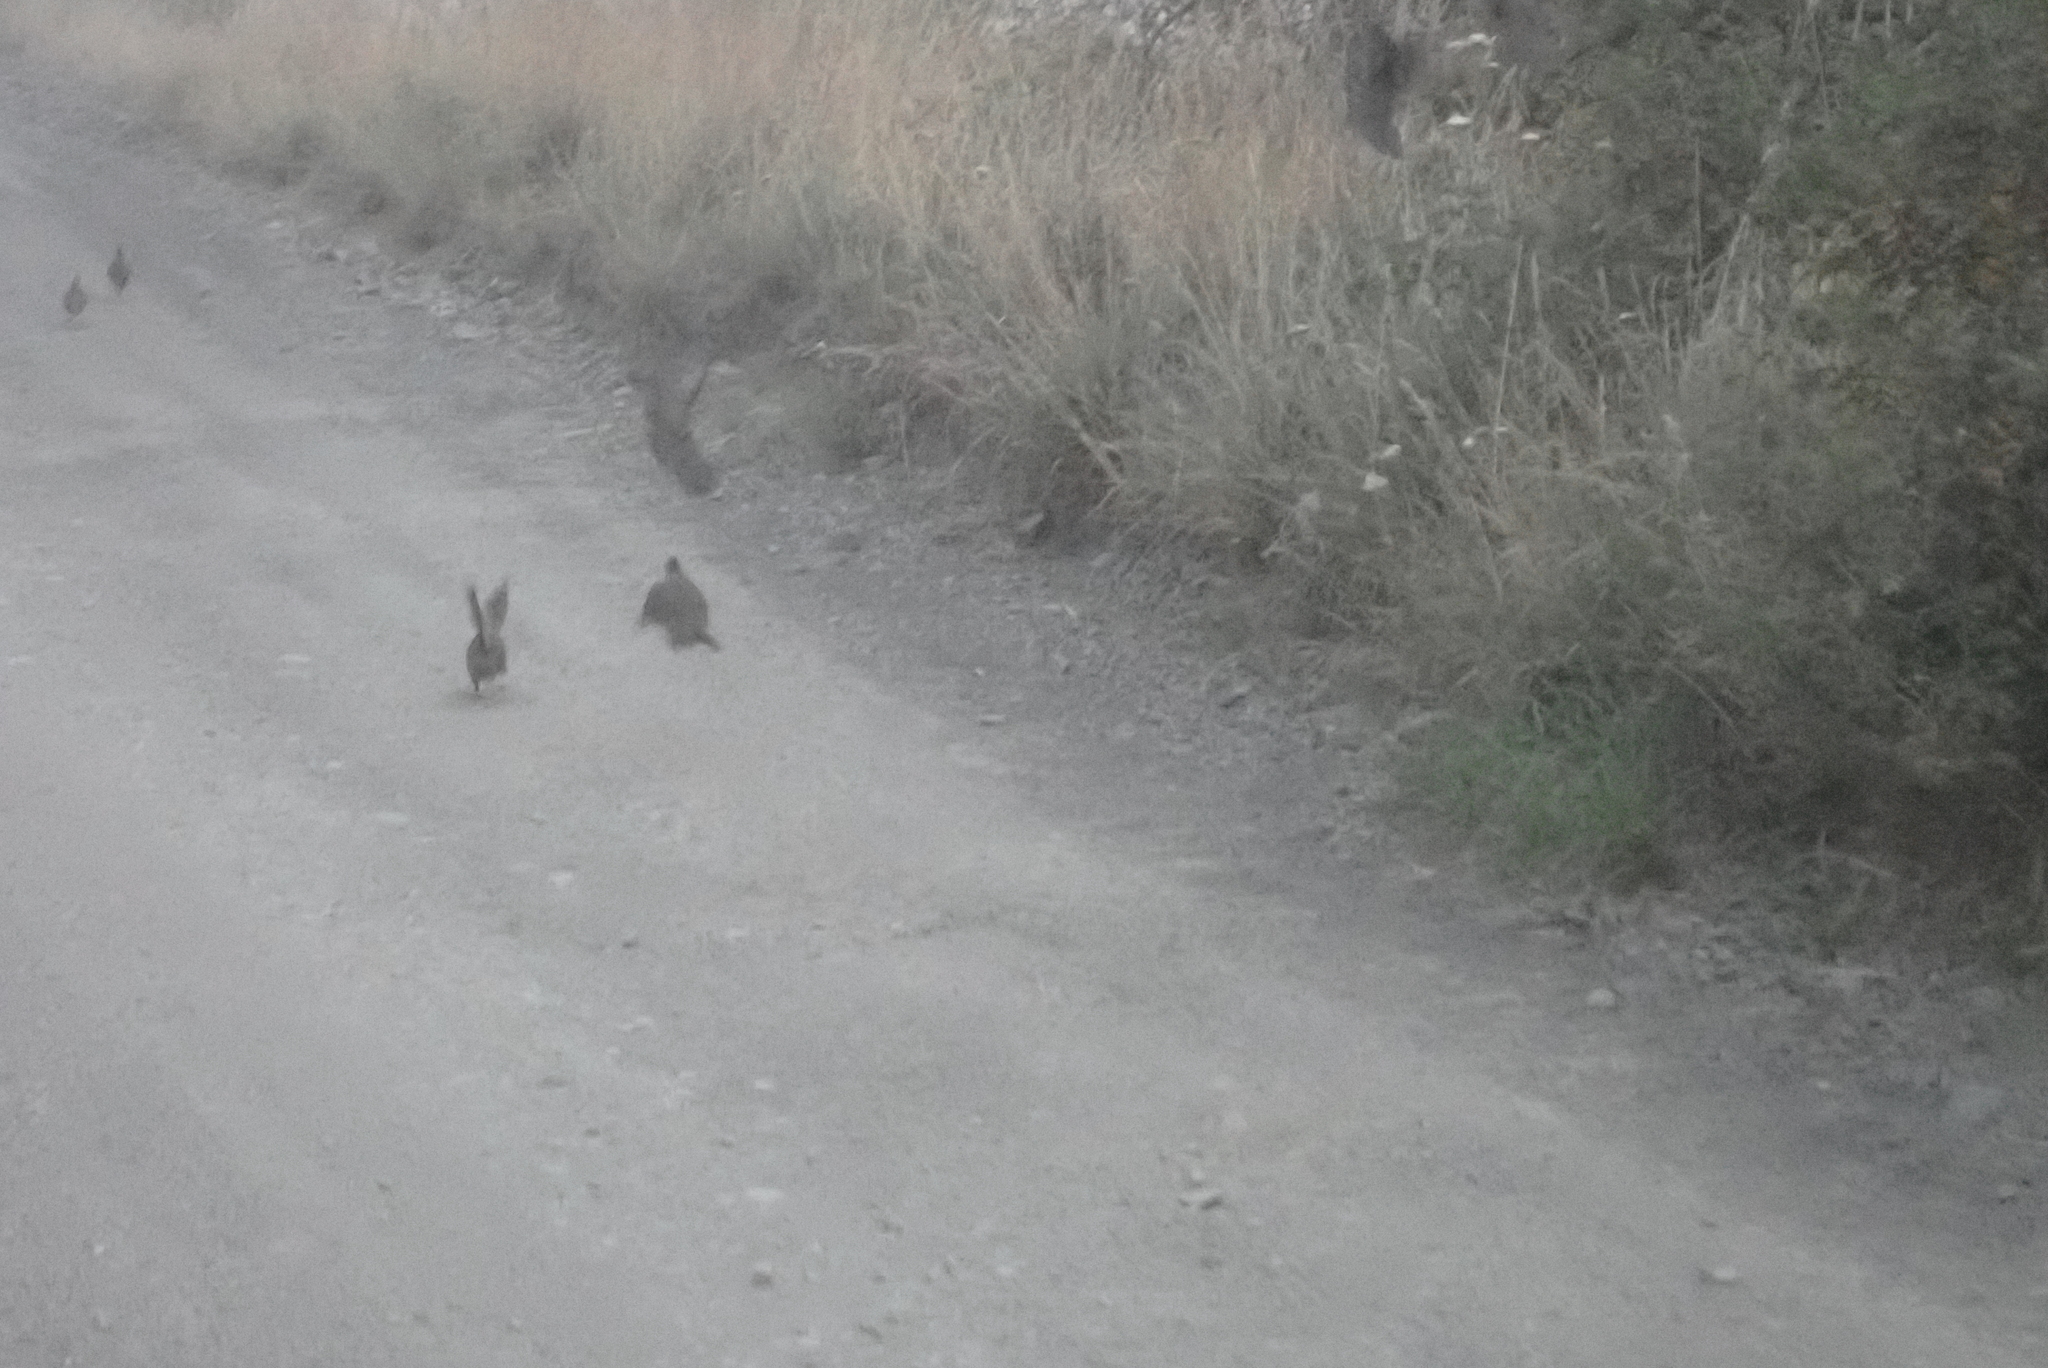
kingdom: Animalia
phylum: Chordata
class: Aves
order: Galliformes
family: Odontophoridae
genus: Callipepla
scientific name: Callipepla californica
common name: California quail
